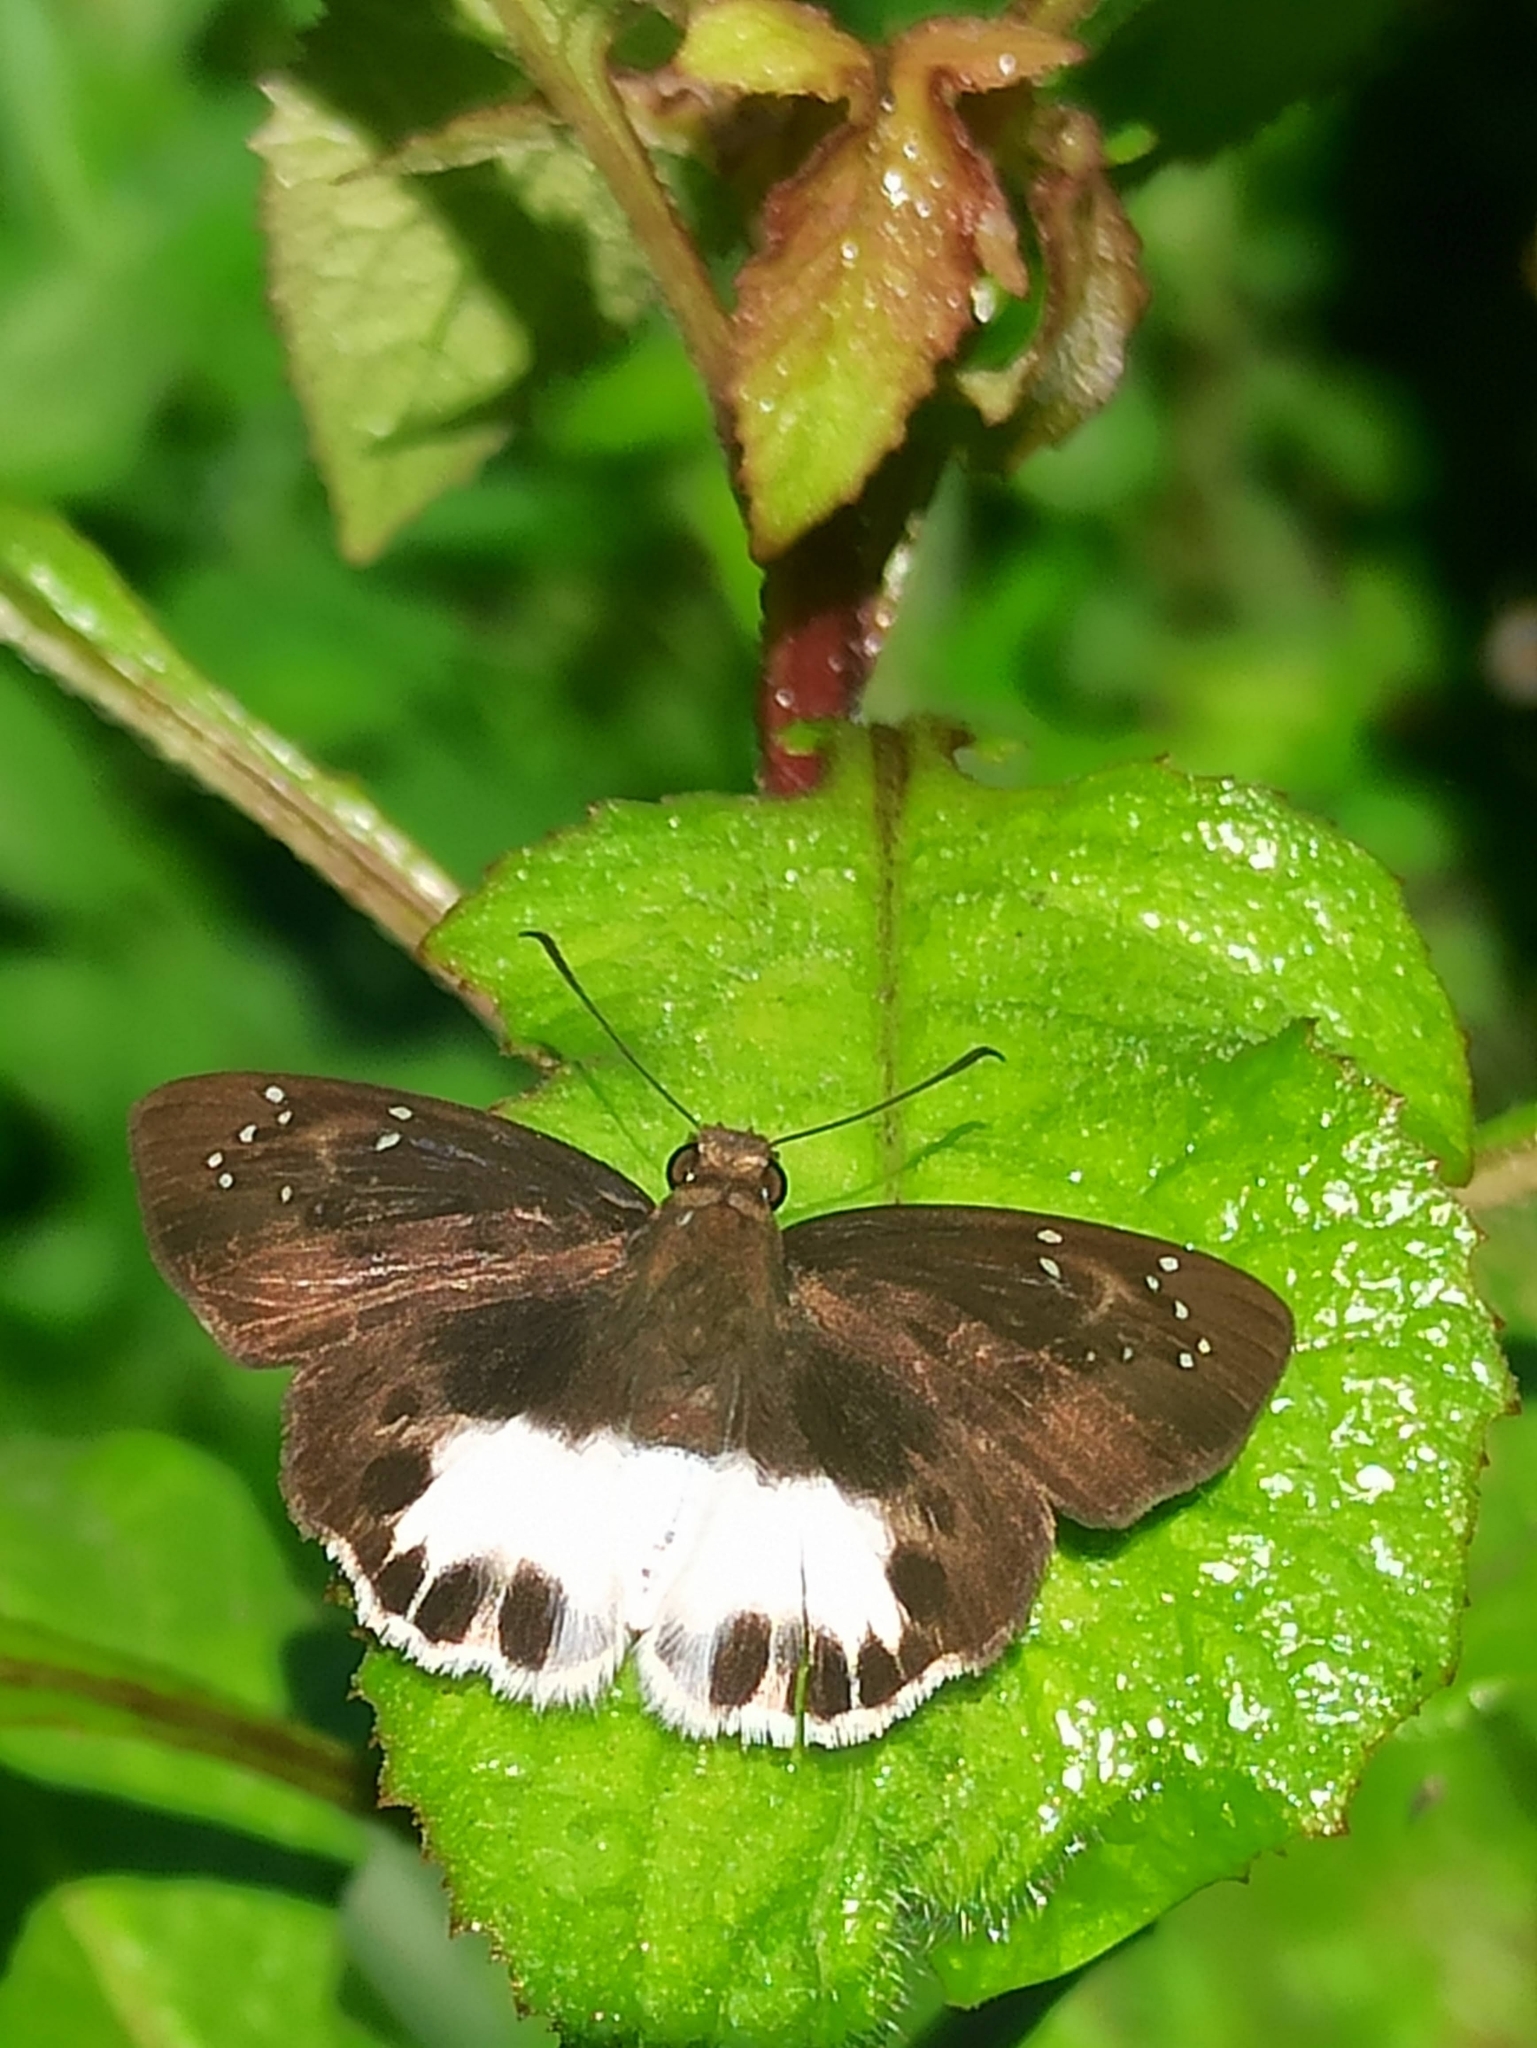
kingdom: Animalia
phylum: Arthropoda
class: Insecta
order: Lepidoptera
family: Hesperiidae
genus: Tagiades
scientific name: Tagiades litigiosa
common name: Water snow flat
